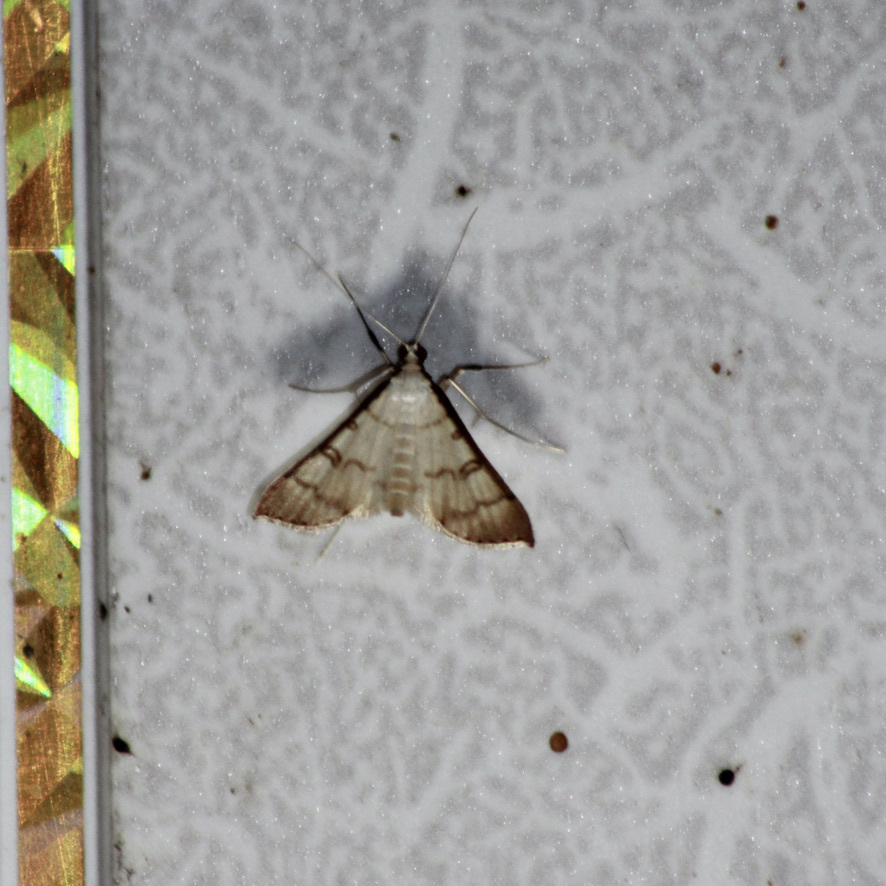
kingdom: Animalia
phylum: Arthropoda
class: Insecta
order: Lepidoptera
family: Crambidae
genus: Stenia
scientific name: Stenia colubralis
